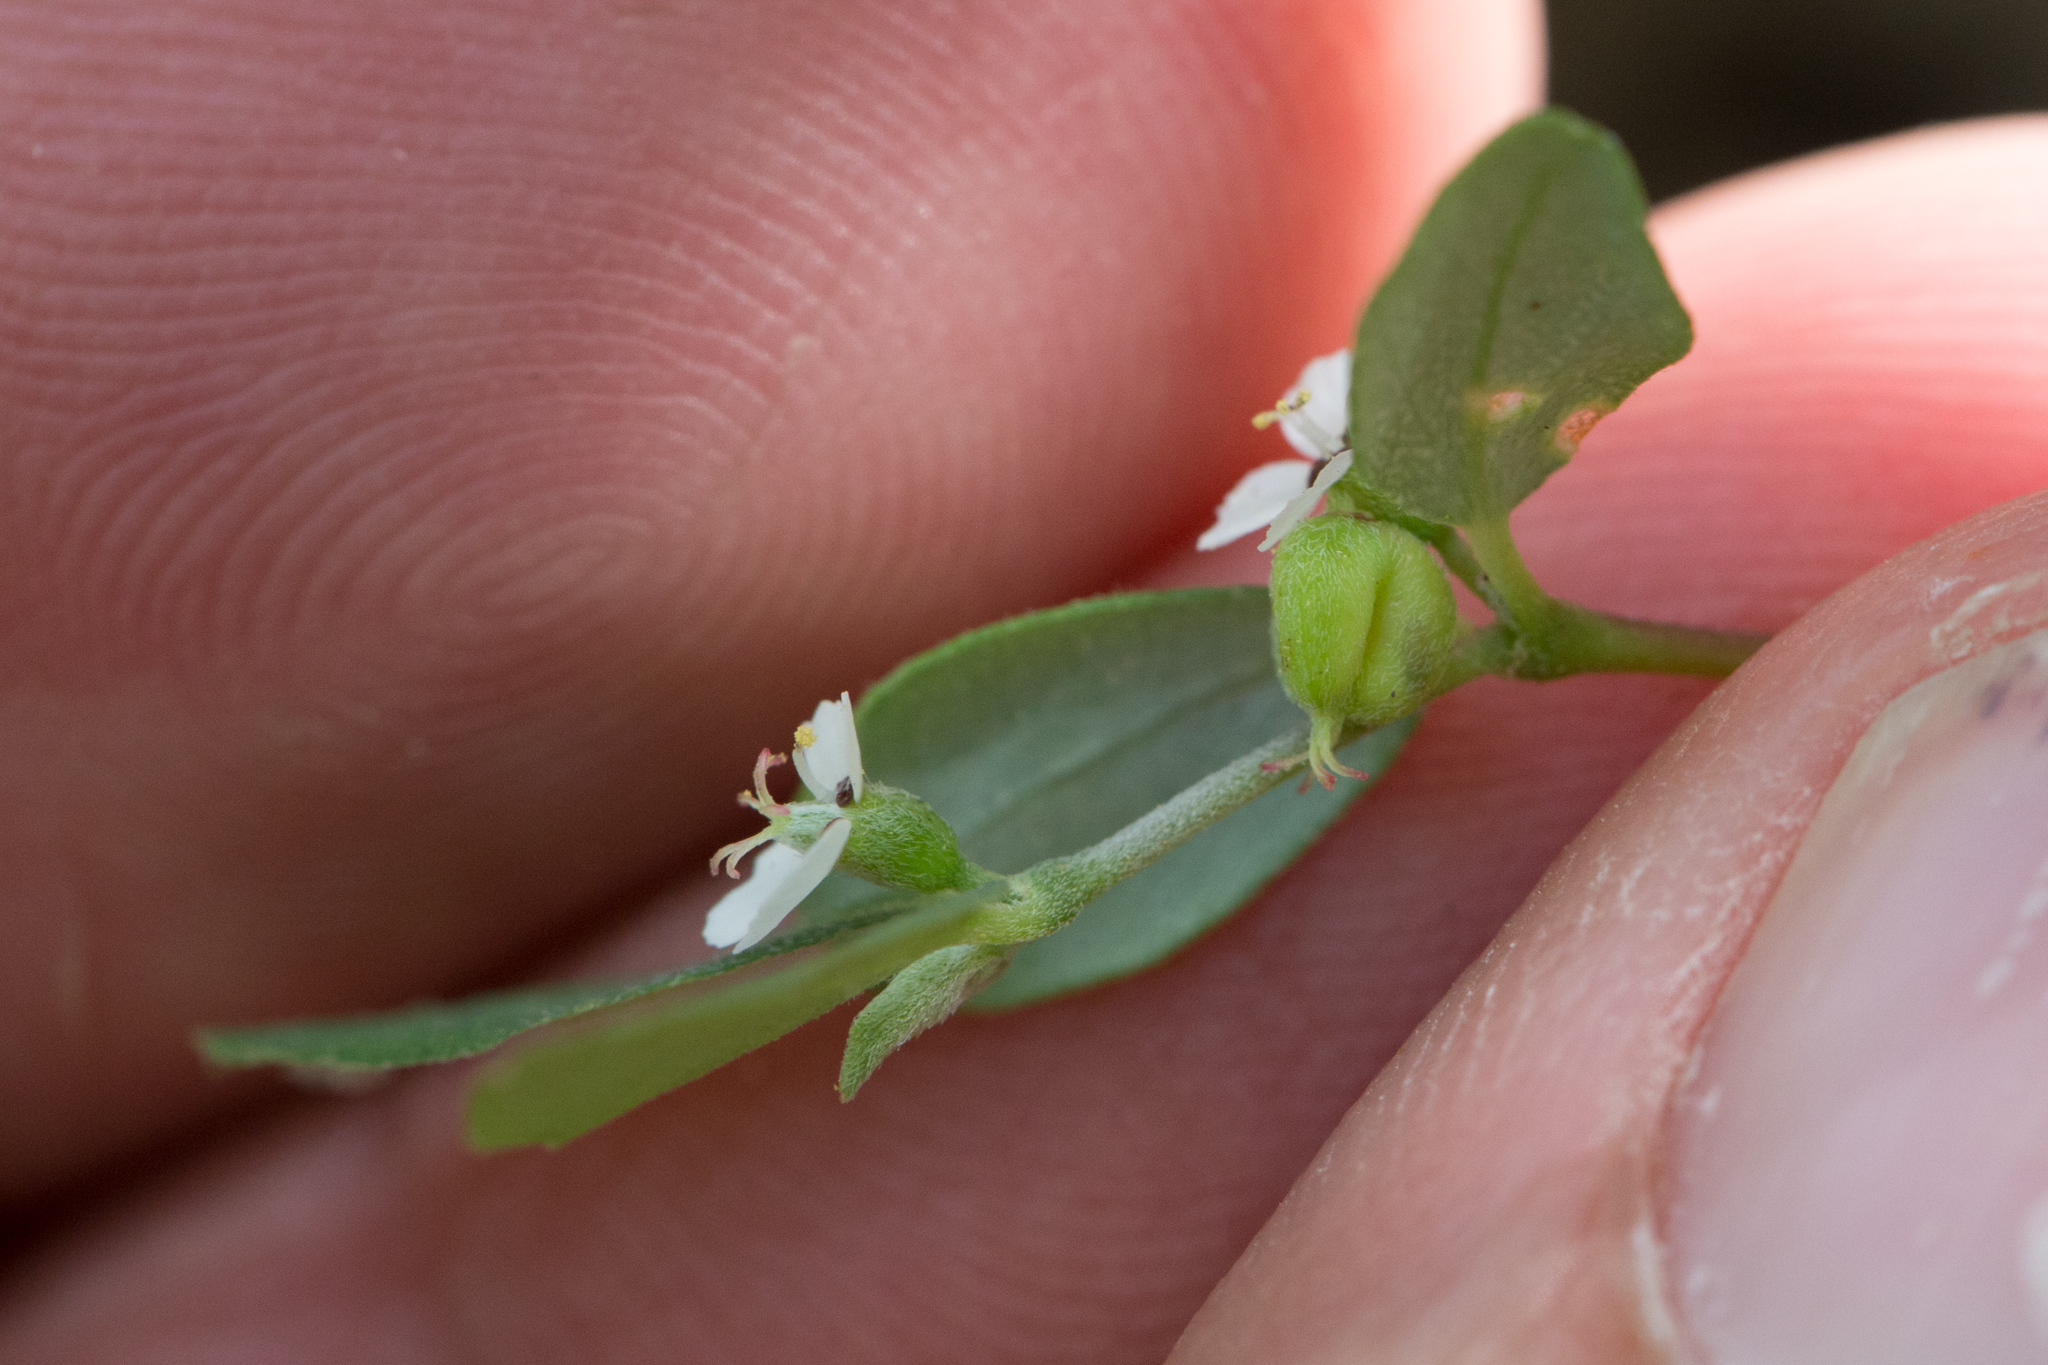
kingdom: Plantae
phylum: Tracheophyta
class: Magnoliopsida
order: Malpighiales
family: Euphorbiaceae
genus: Euphorbia
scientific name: Euphorbia pediculifera
